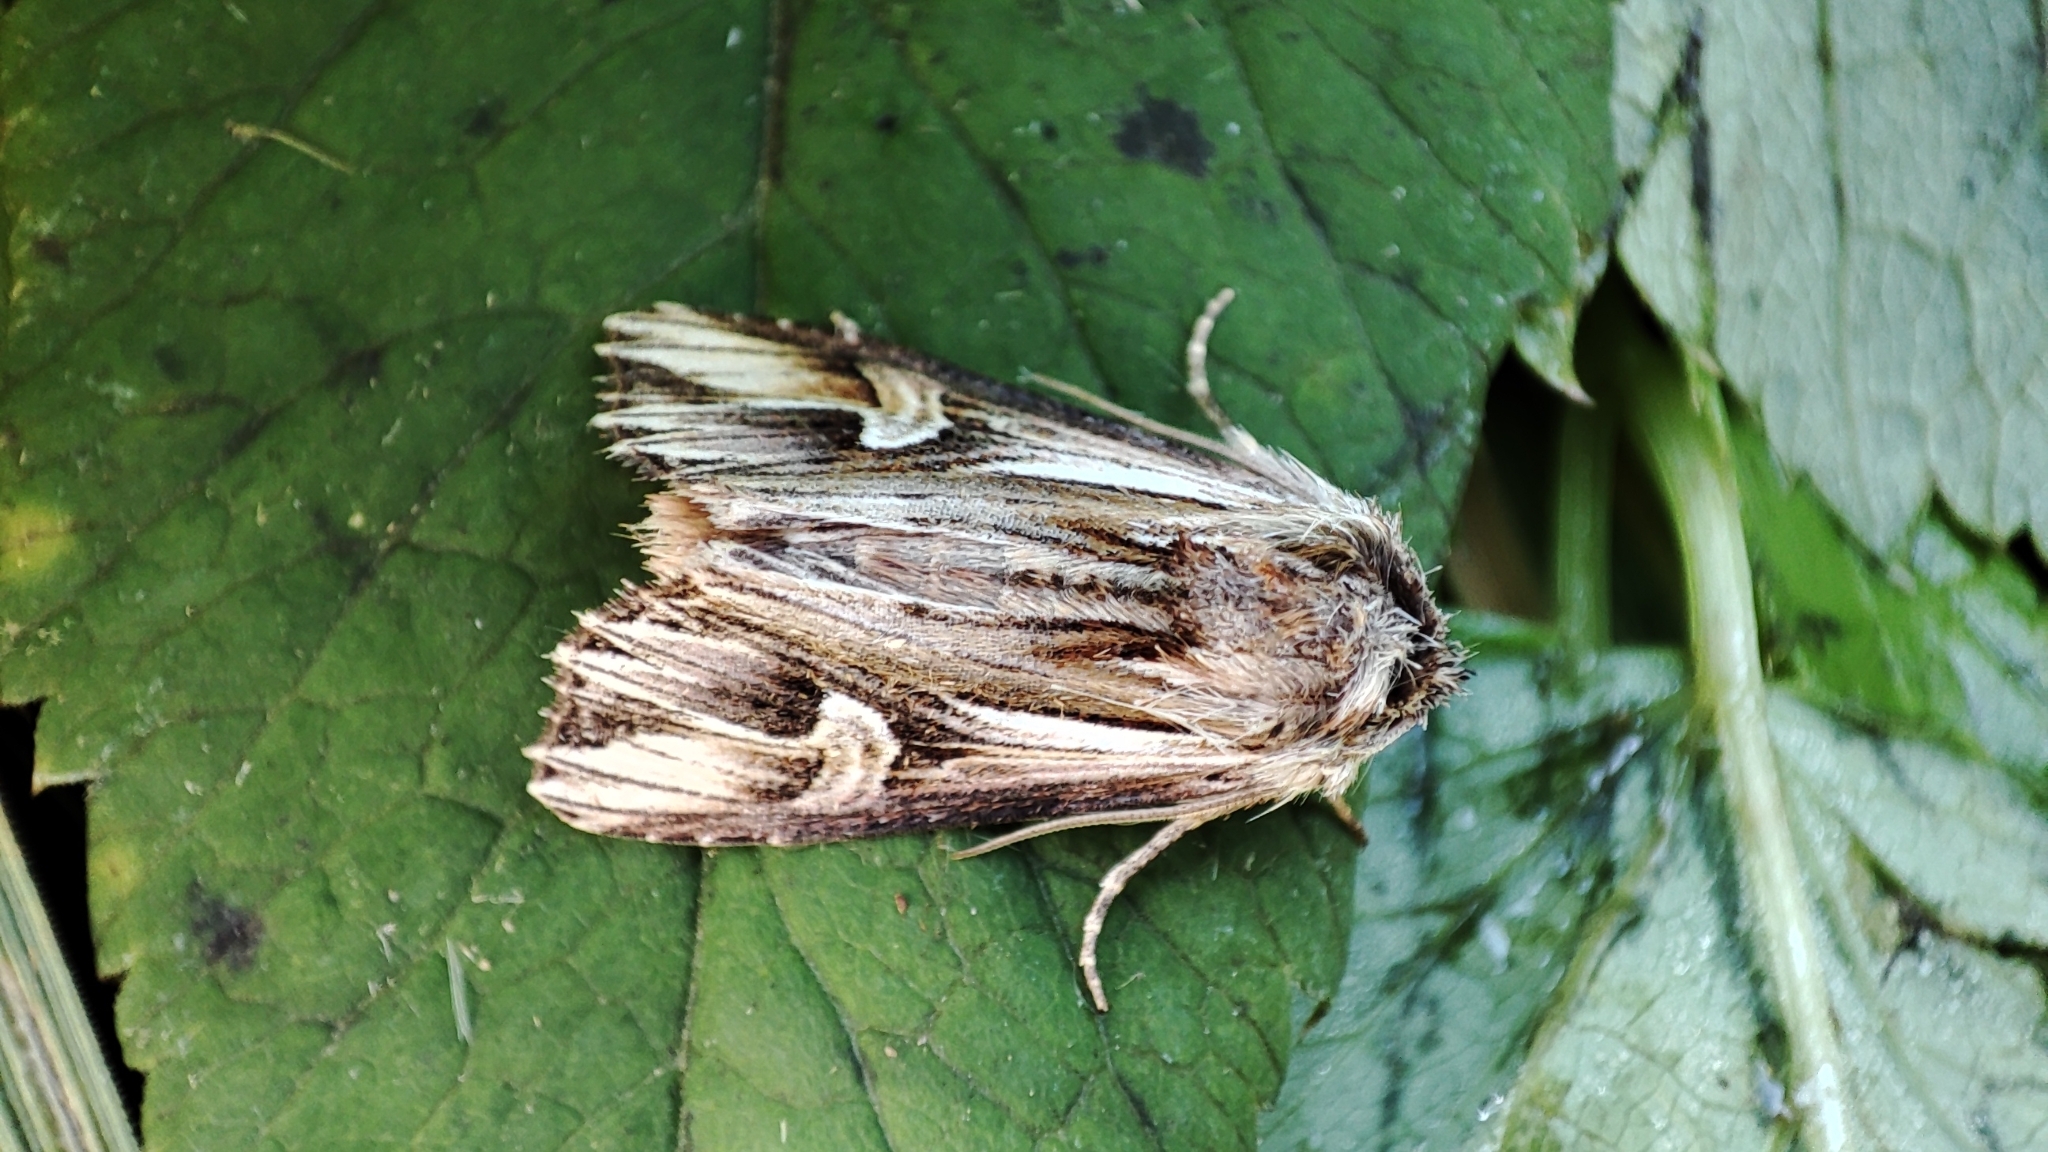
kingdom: Animalia
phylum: Arthropoda
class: Insecta
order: Lepidoptera
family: Noctuidae
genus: Actinotia
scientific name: Actinotia polyodon
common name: Purple cloud
